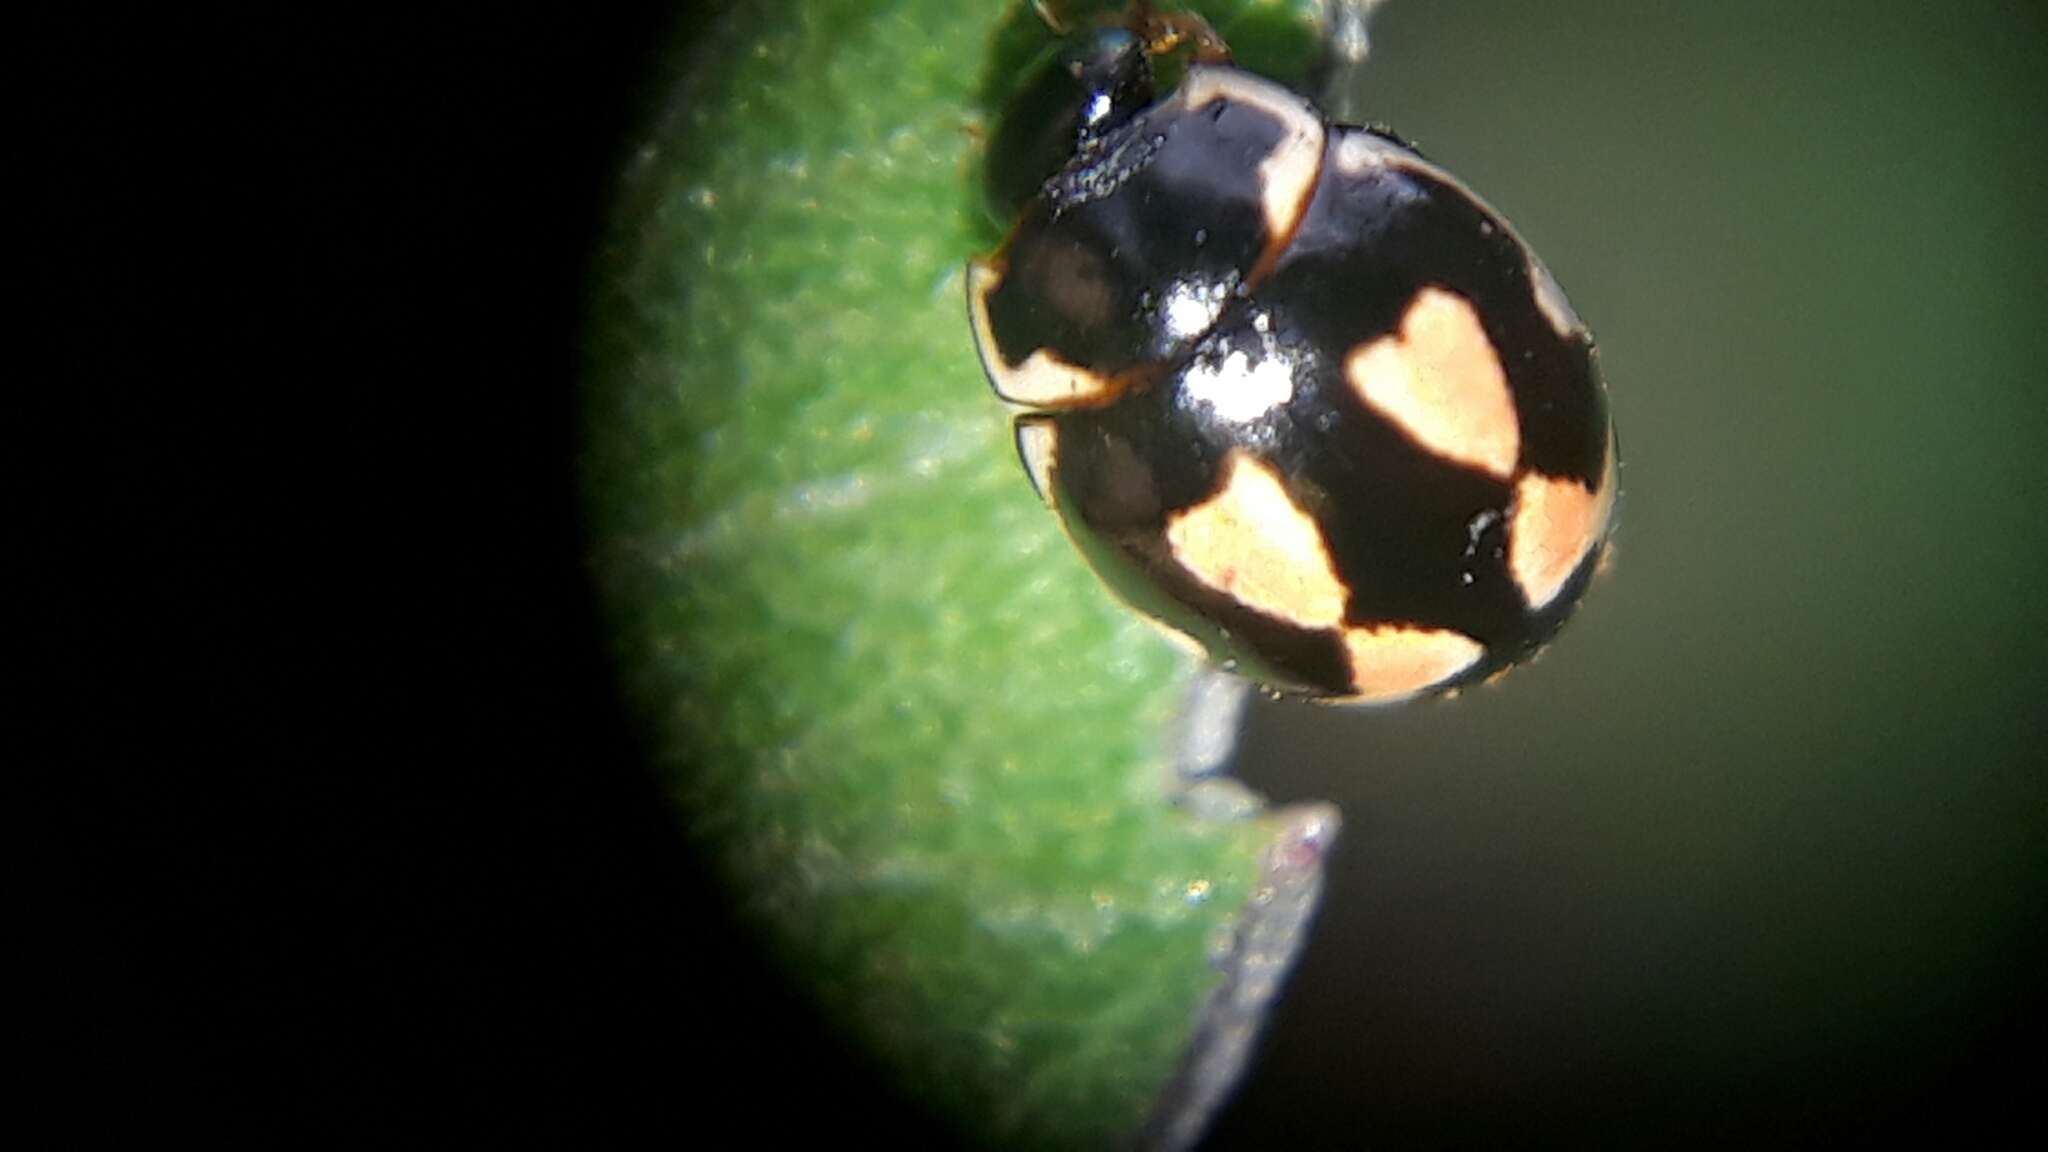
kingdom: Animalia
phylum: Arthropoda
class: Insecta
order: Coleoptera
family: Coccinellidae
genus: Hyperaspis
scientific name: Hyperaspis festiva
